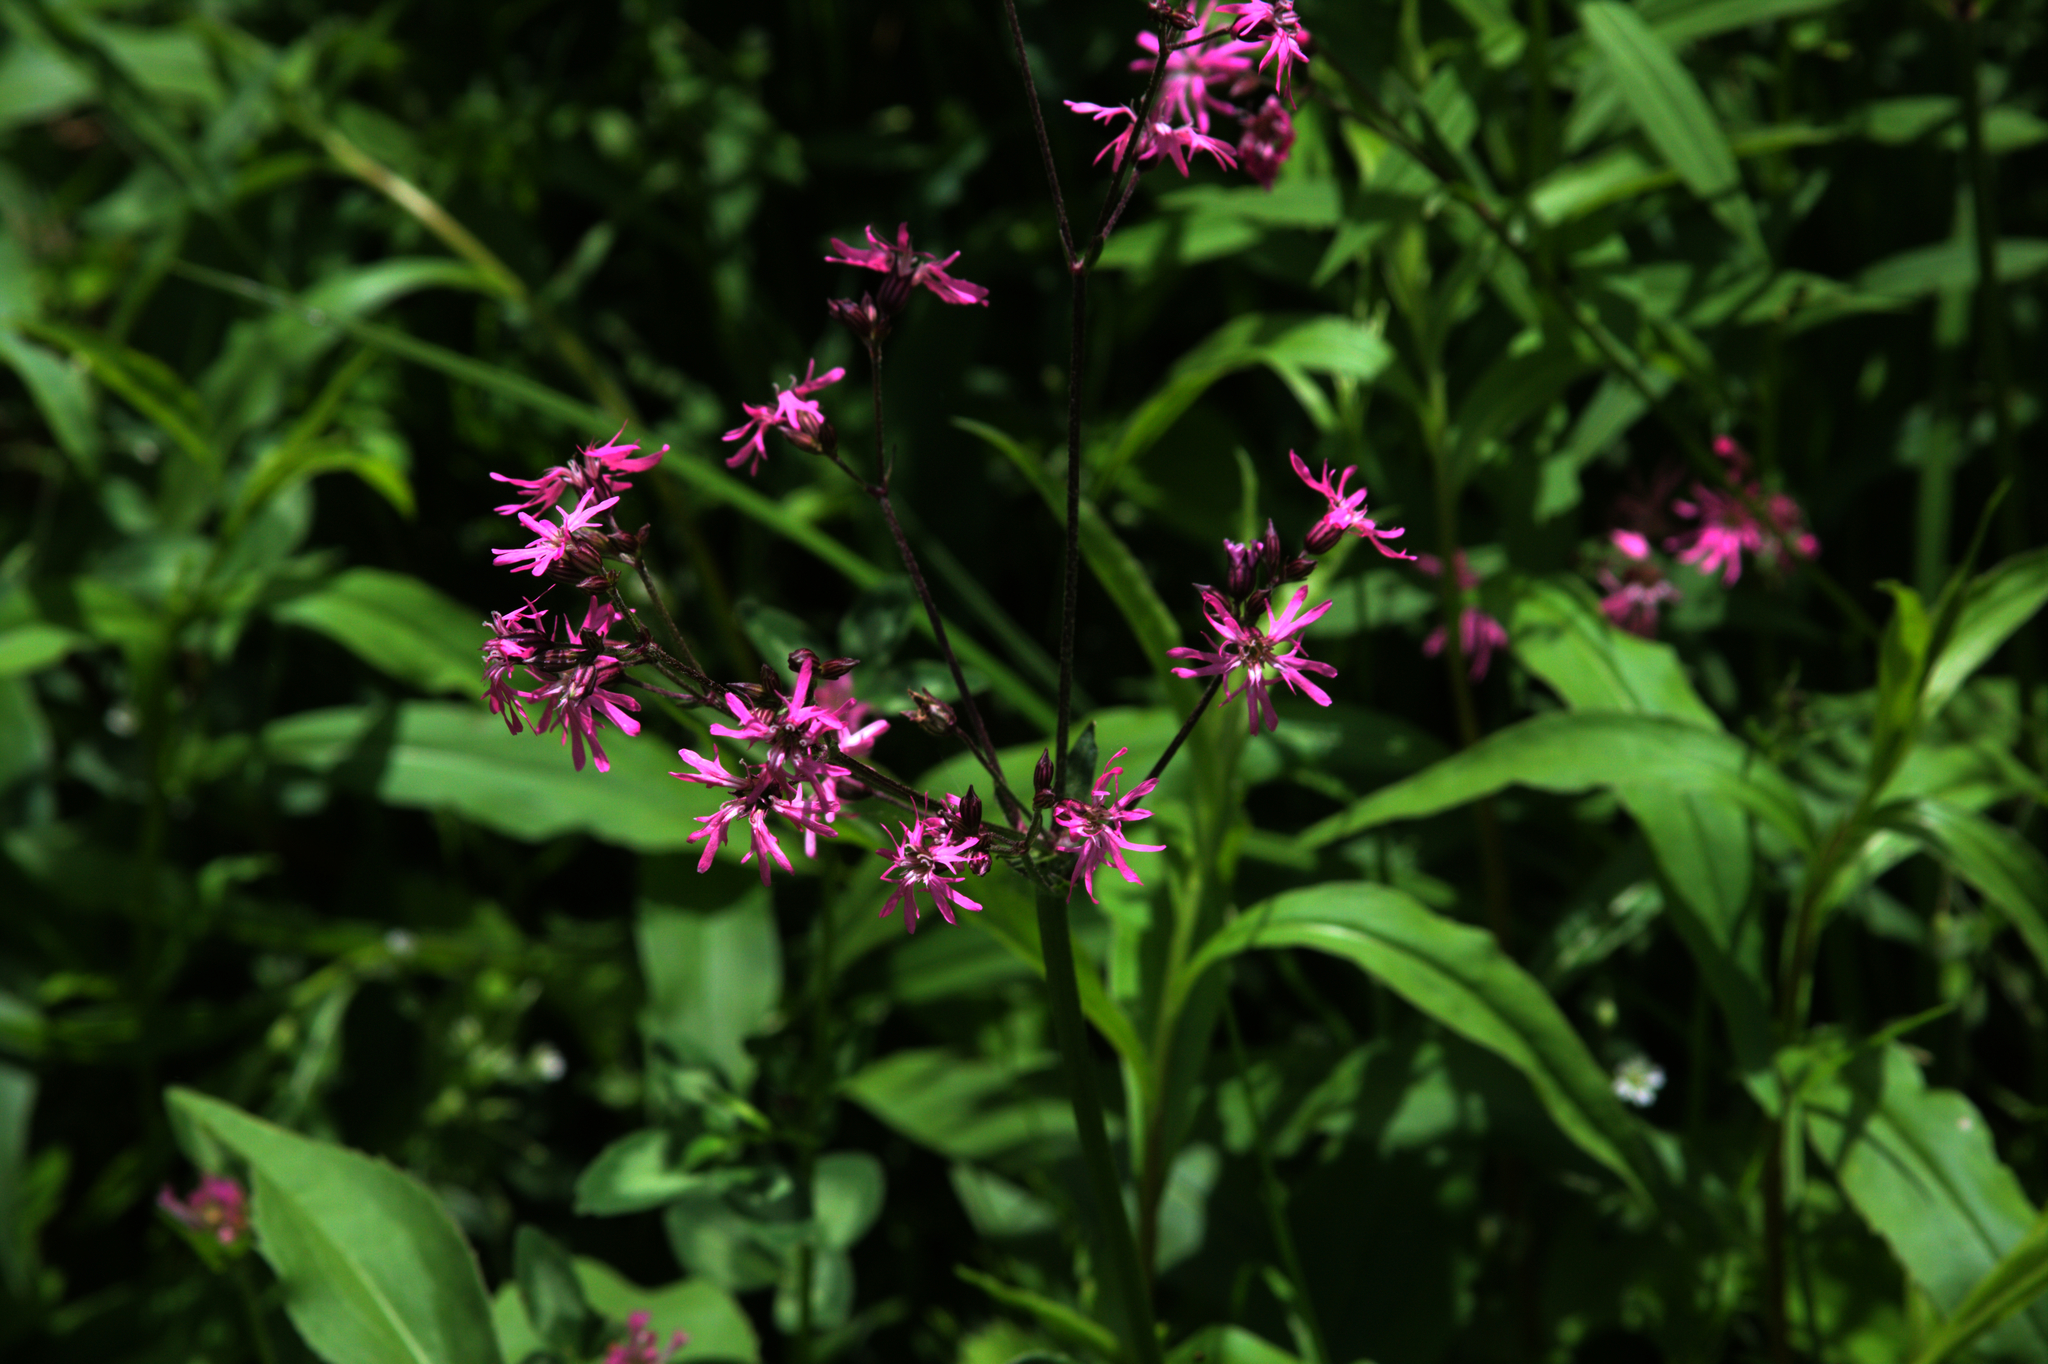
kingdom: Plantae
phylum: Tracheophyta
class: Magnoliopsida
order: Caryophyllales
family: Caryophyllaceae
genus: Silene
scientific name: Silene flos-cuculi
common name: Ragged-robin
